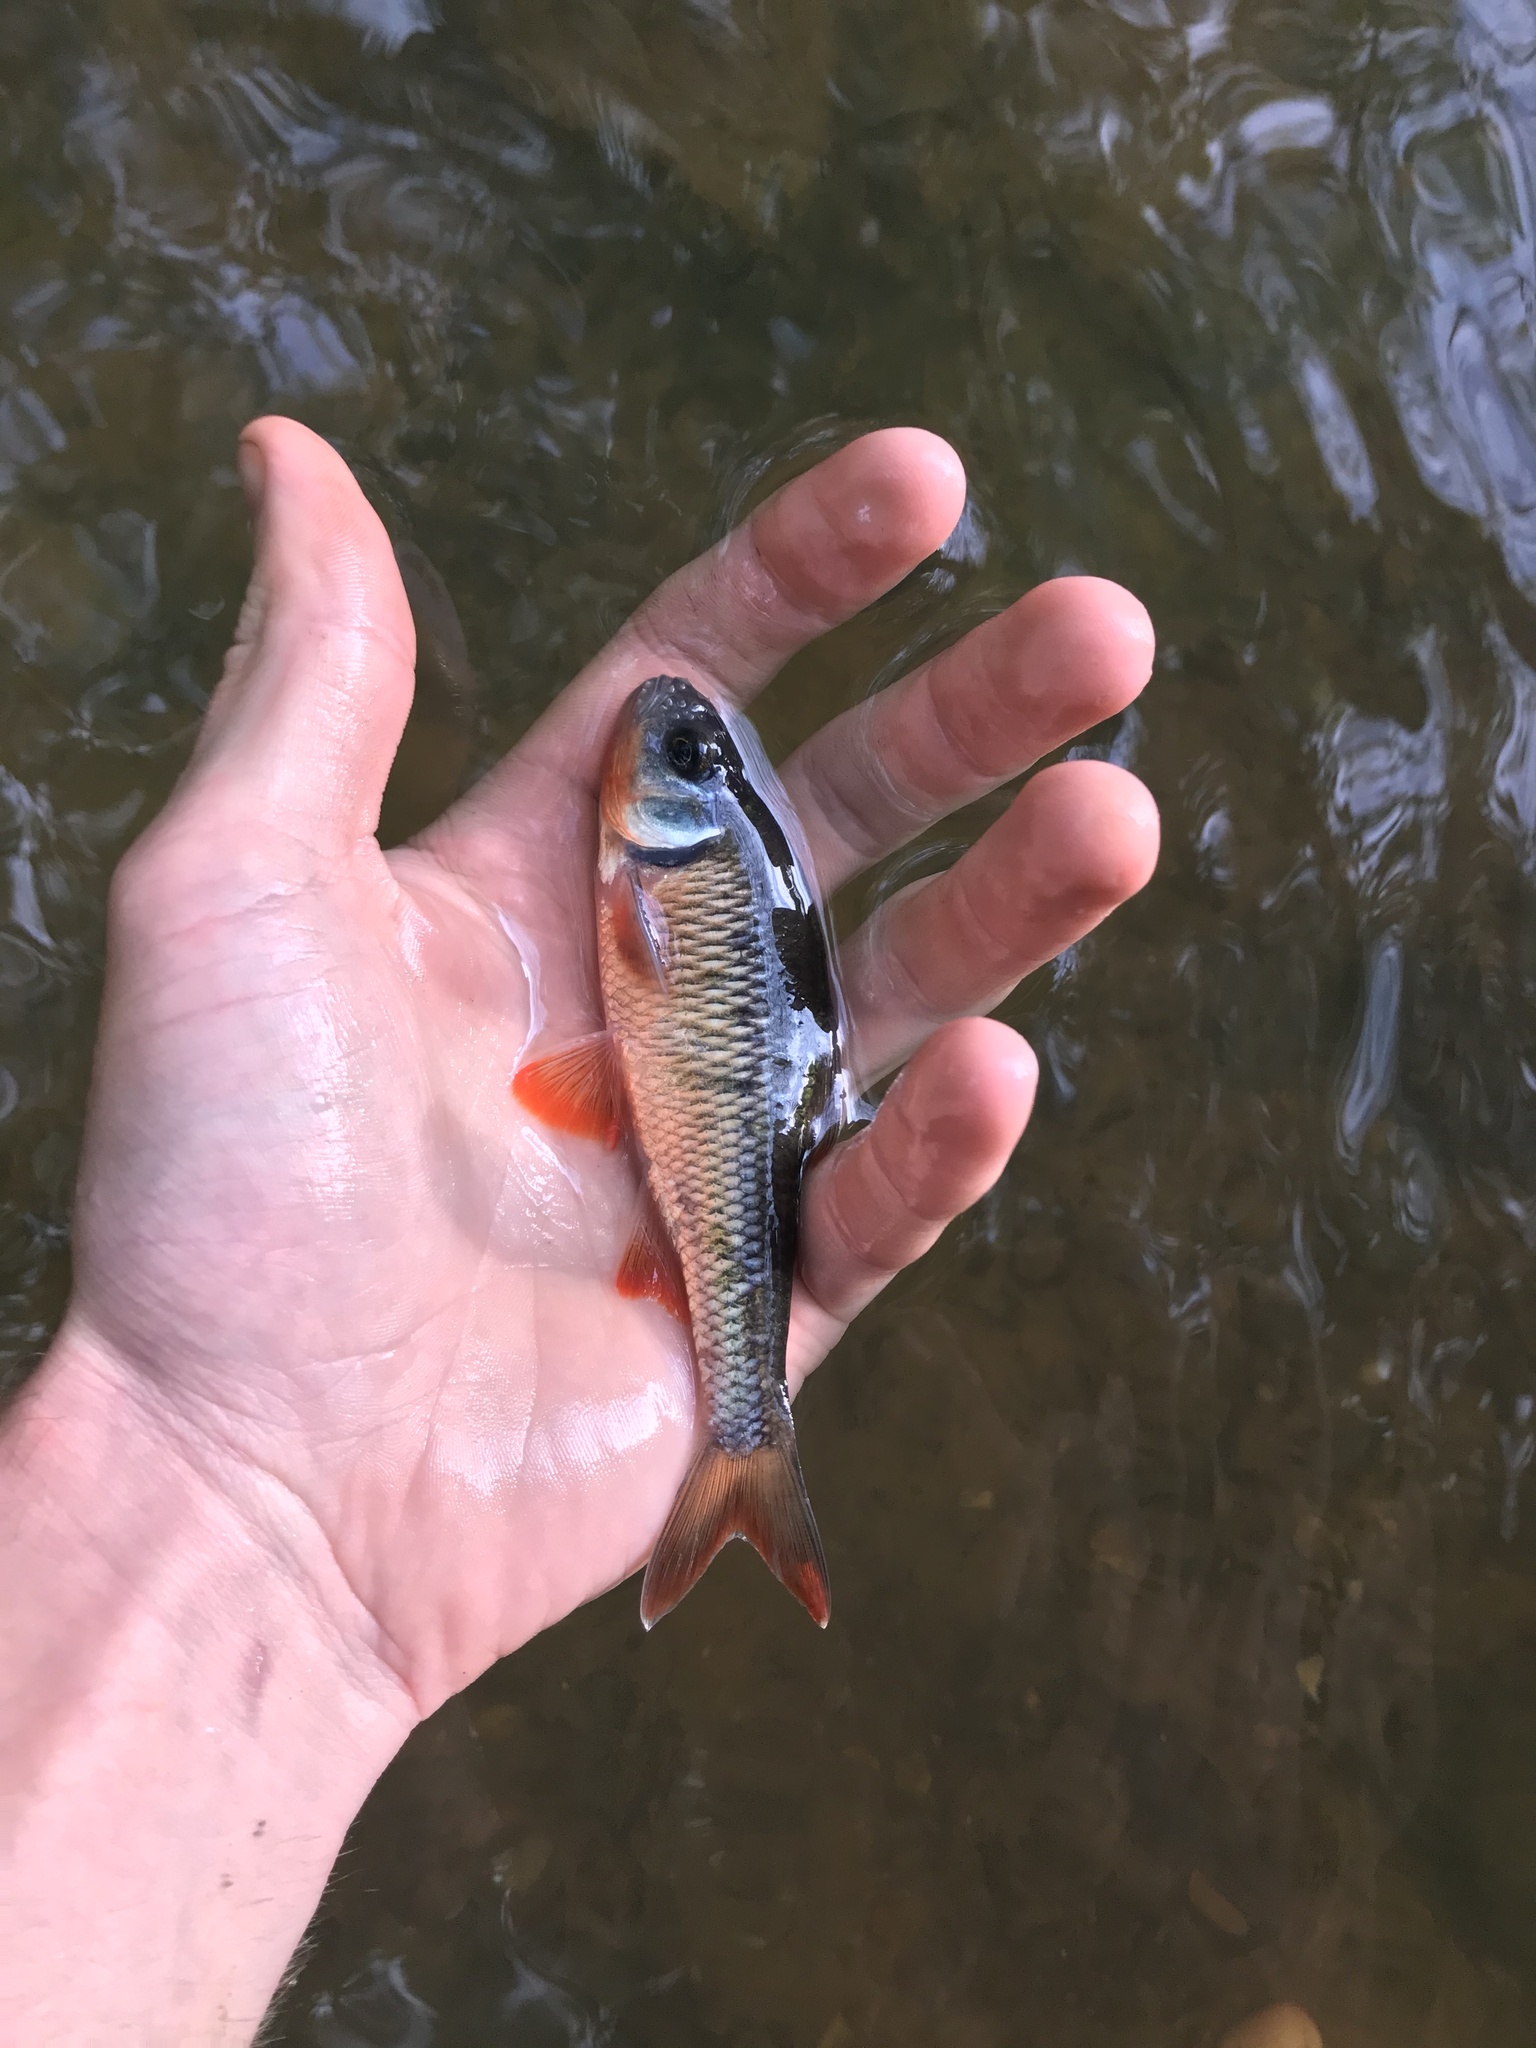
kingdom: Animalia
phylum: Chordata
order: Cypriniformes
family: Cyprinidae
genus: Luxilus
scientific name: Luxilus albeolus
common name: White shiner
